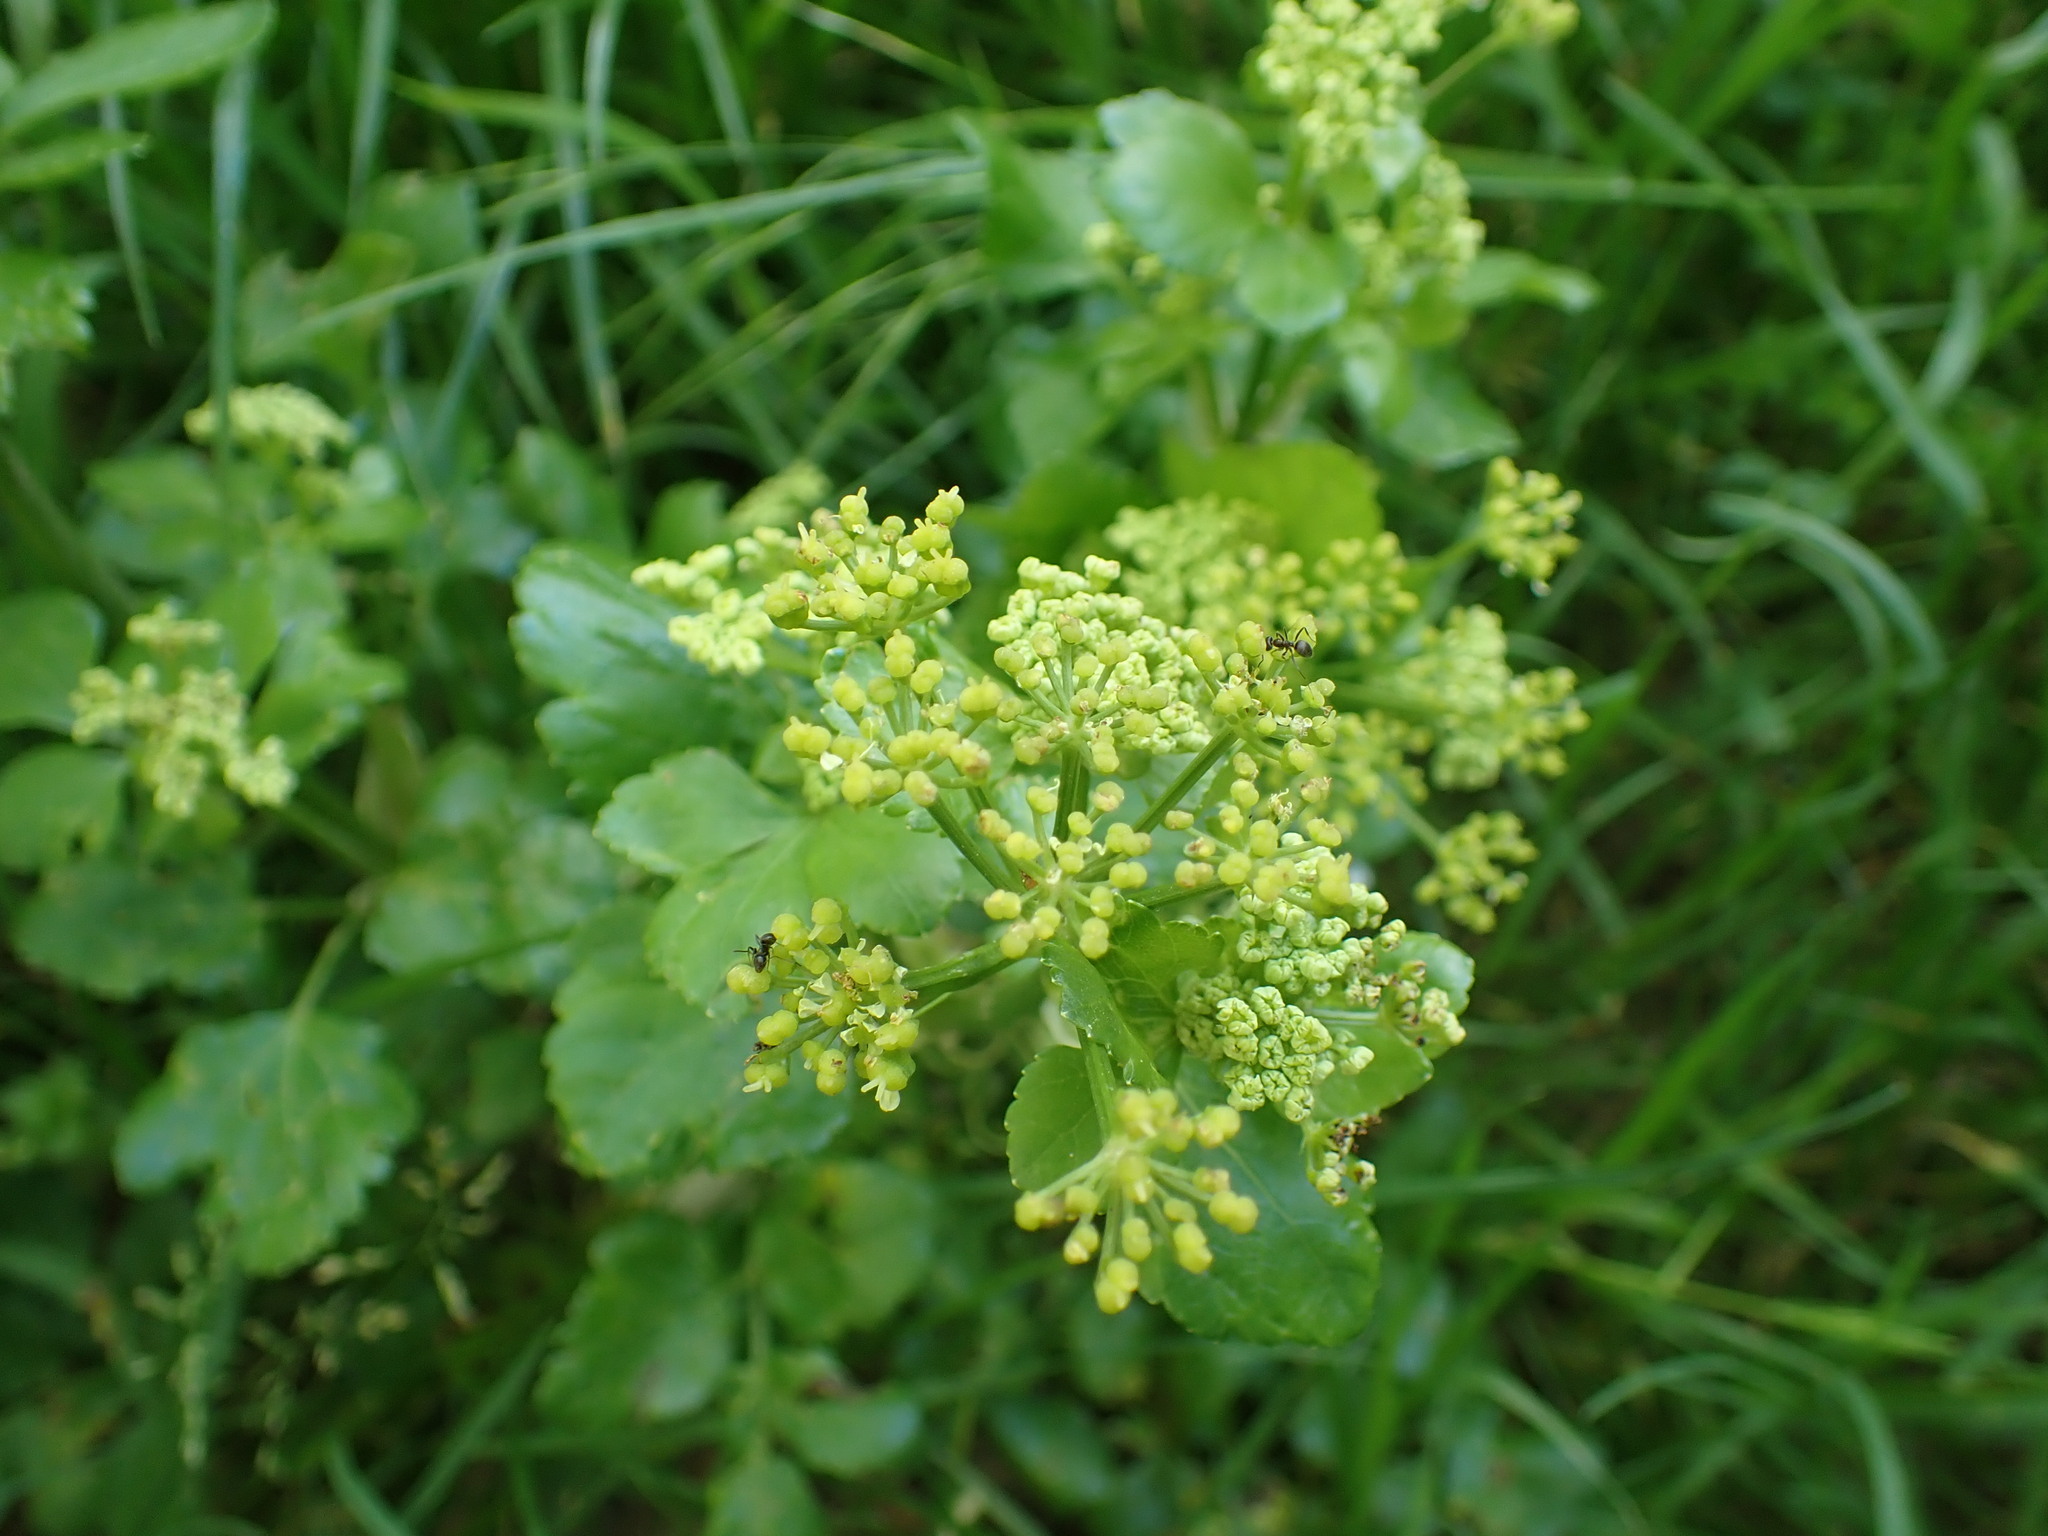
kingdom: Plantae
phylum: Tracheophyta
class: Magnoliopsida
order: Apiales
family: Apiaceae
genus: Smyrnium
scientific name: Smyrnium olusatrum
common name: Alexanders
